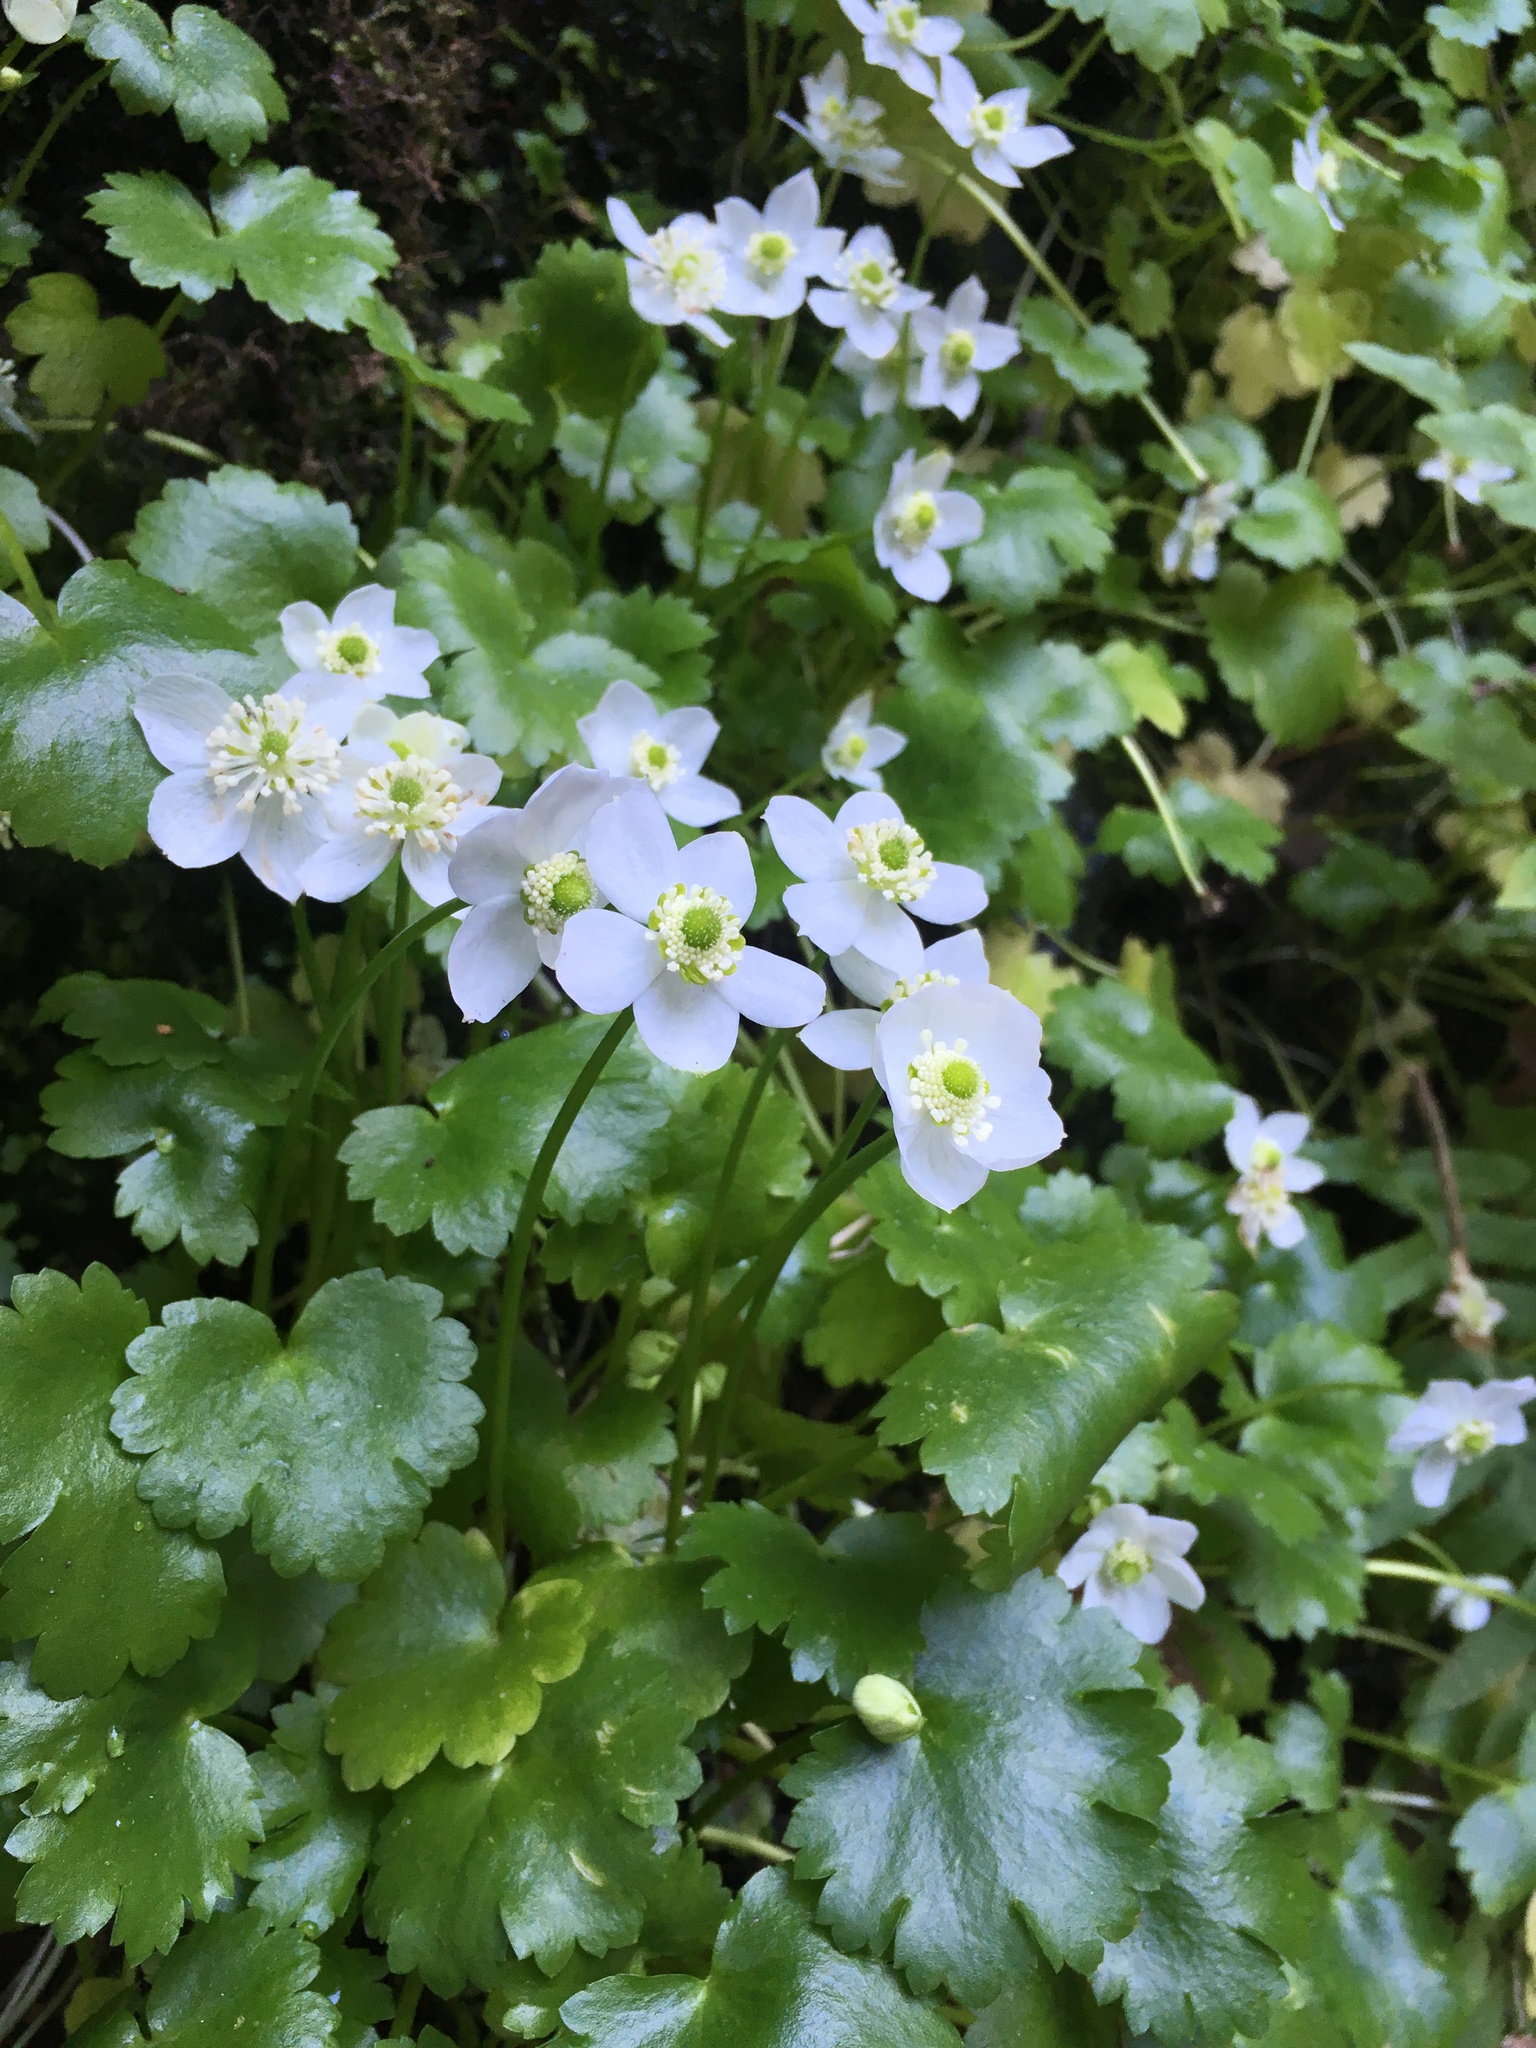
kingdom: Plantae
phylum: Tracheophyta
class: Magnoliopsida
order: Ranunculales
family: Ranunculaceae
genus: Kumlienia
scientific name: Kumlienia hystricula
